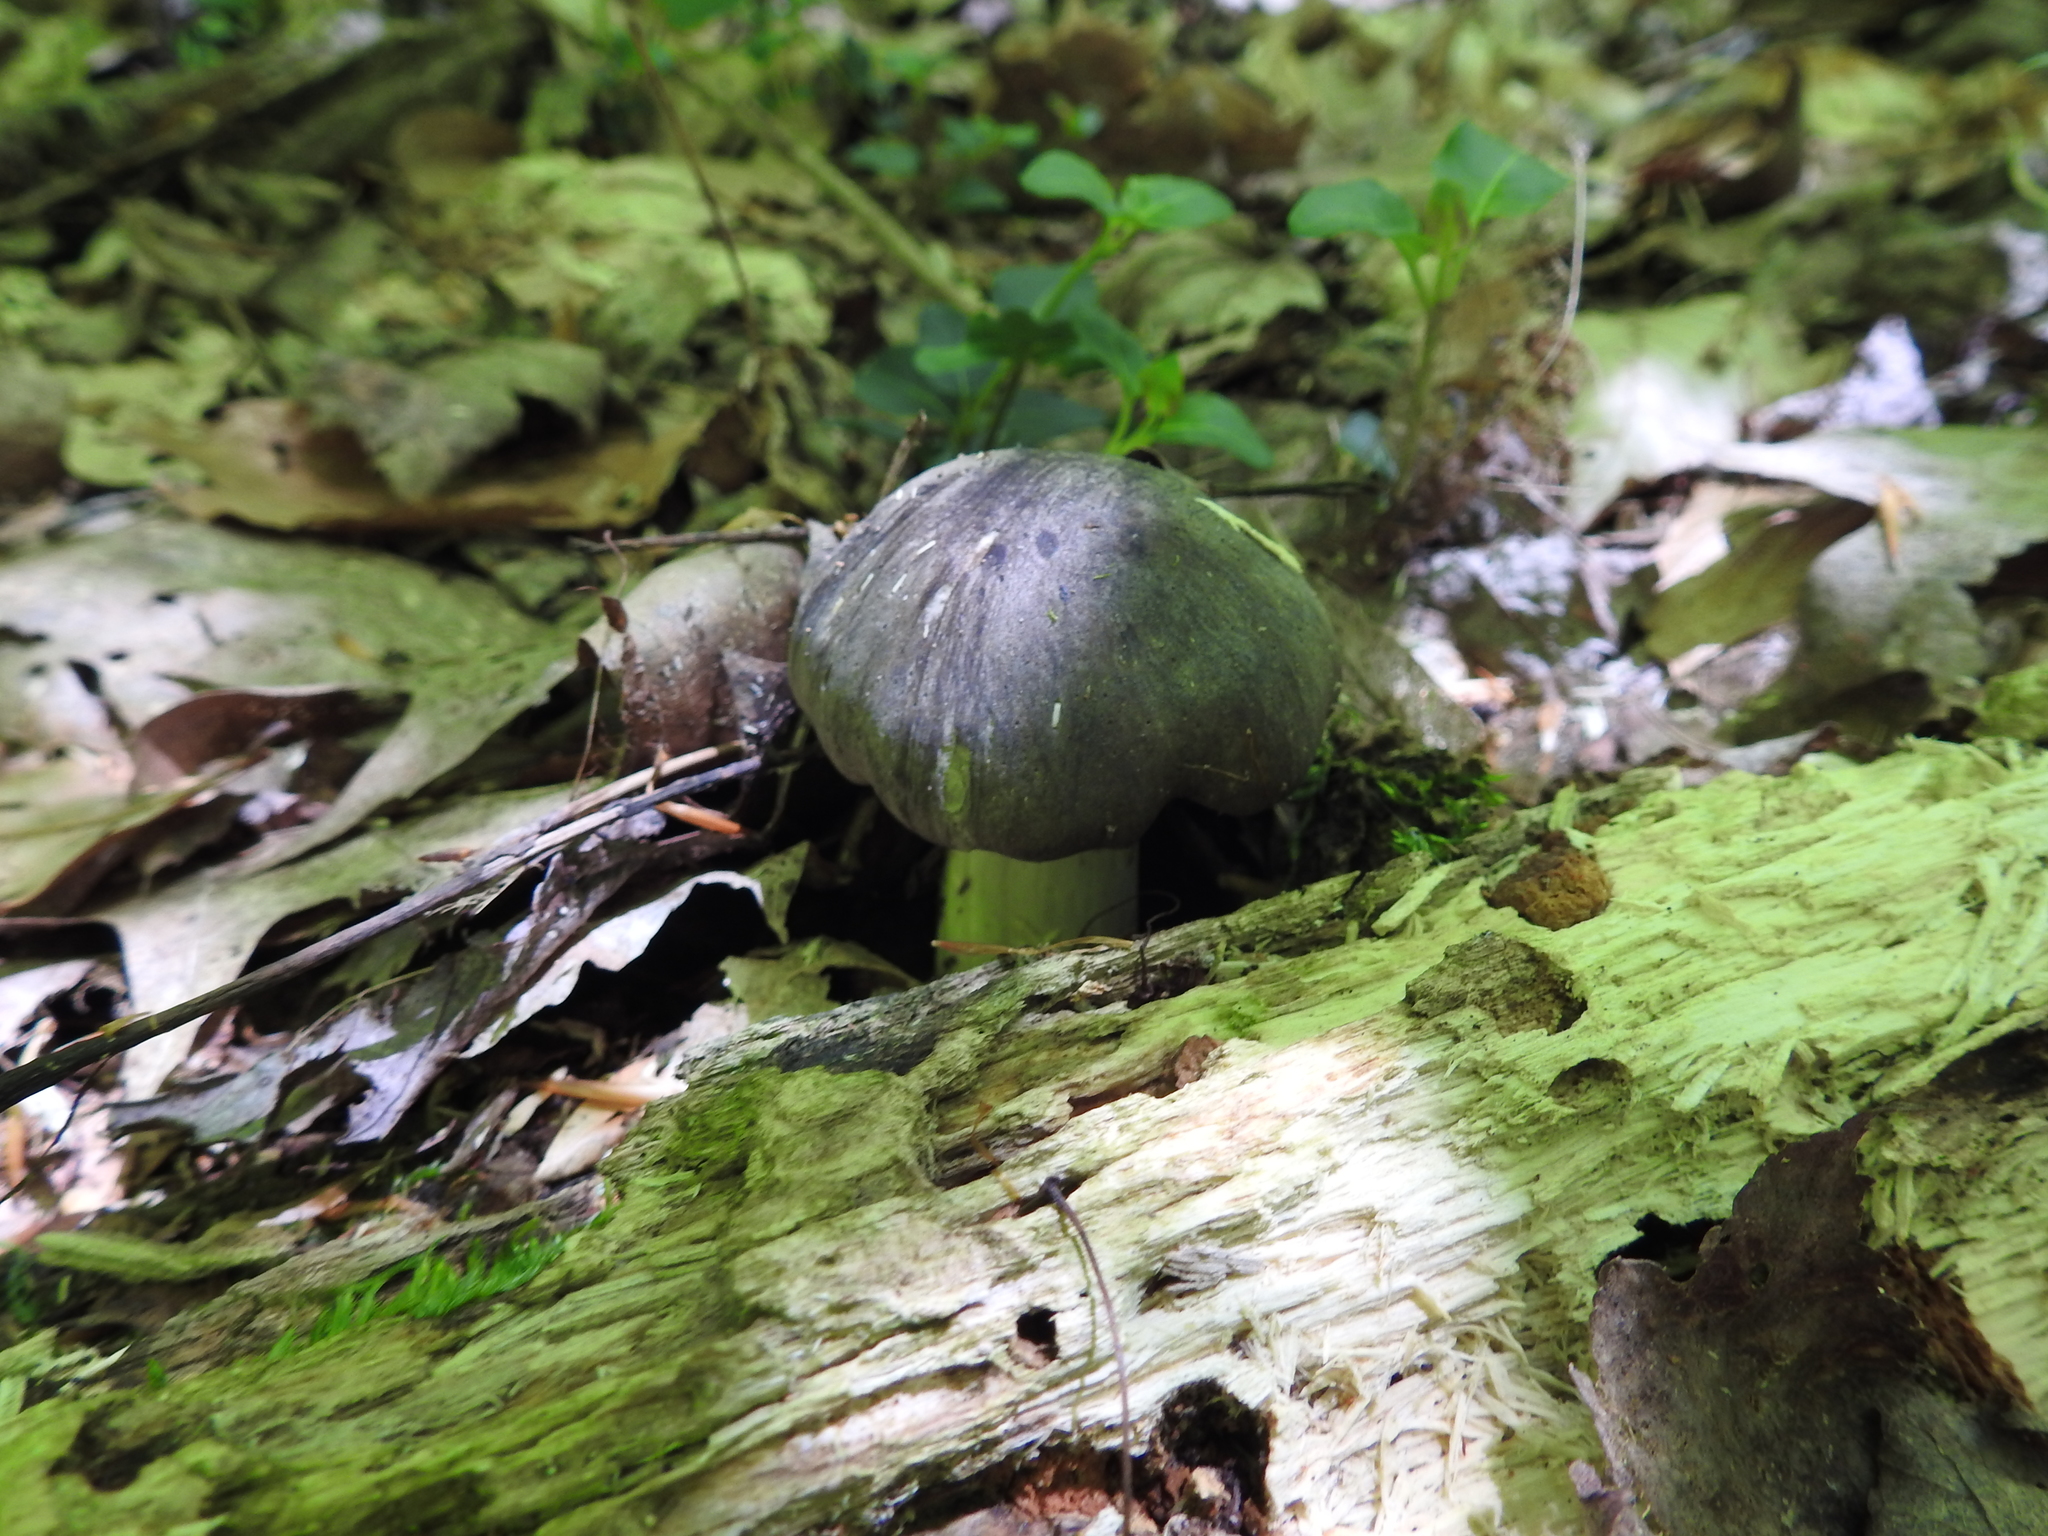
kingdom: Fungi
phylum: Basidiomycota
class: Agaricomycetes
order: Agaricales
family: Tricholomataceae
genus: Megacollybia
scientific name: Megacollybia rodmanii
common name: Eastern american platterful mushroom
